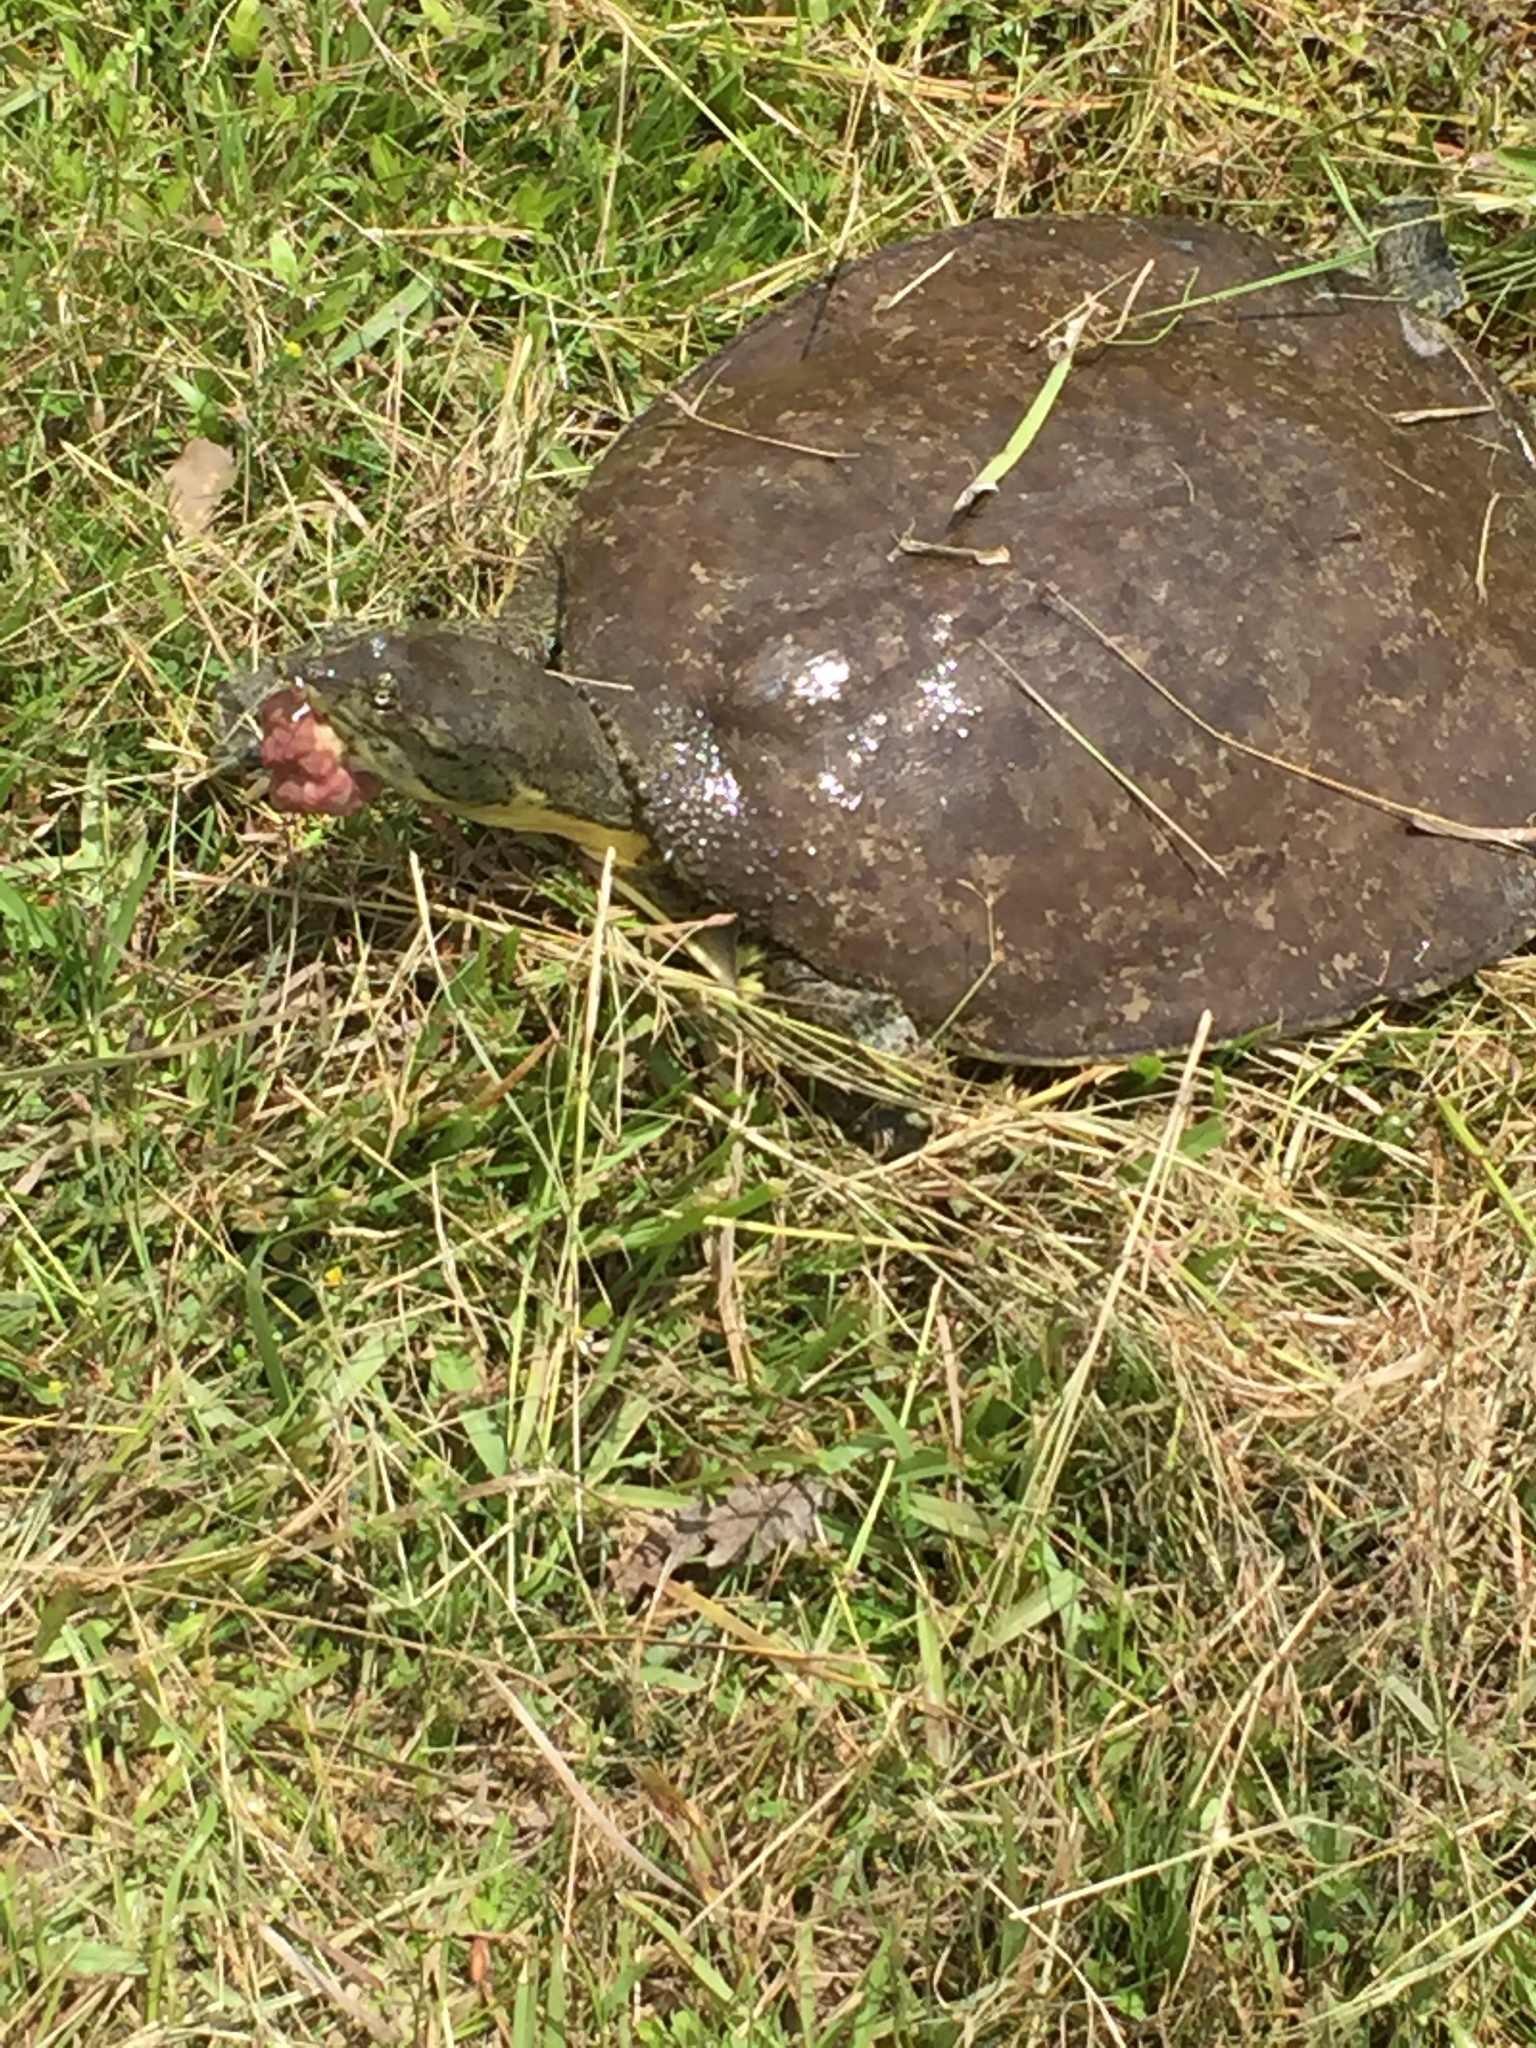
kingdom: Animalia
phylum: Chordata
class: Testudines
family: Trionychidae
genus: Apalone
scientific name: Apalone spinifera
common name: Spiny softshell turtle
